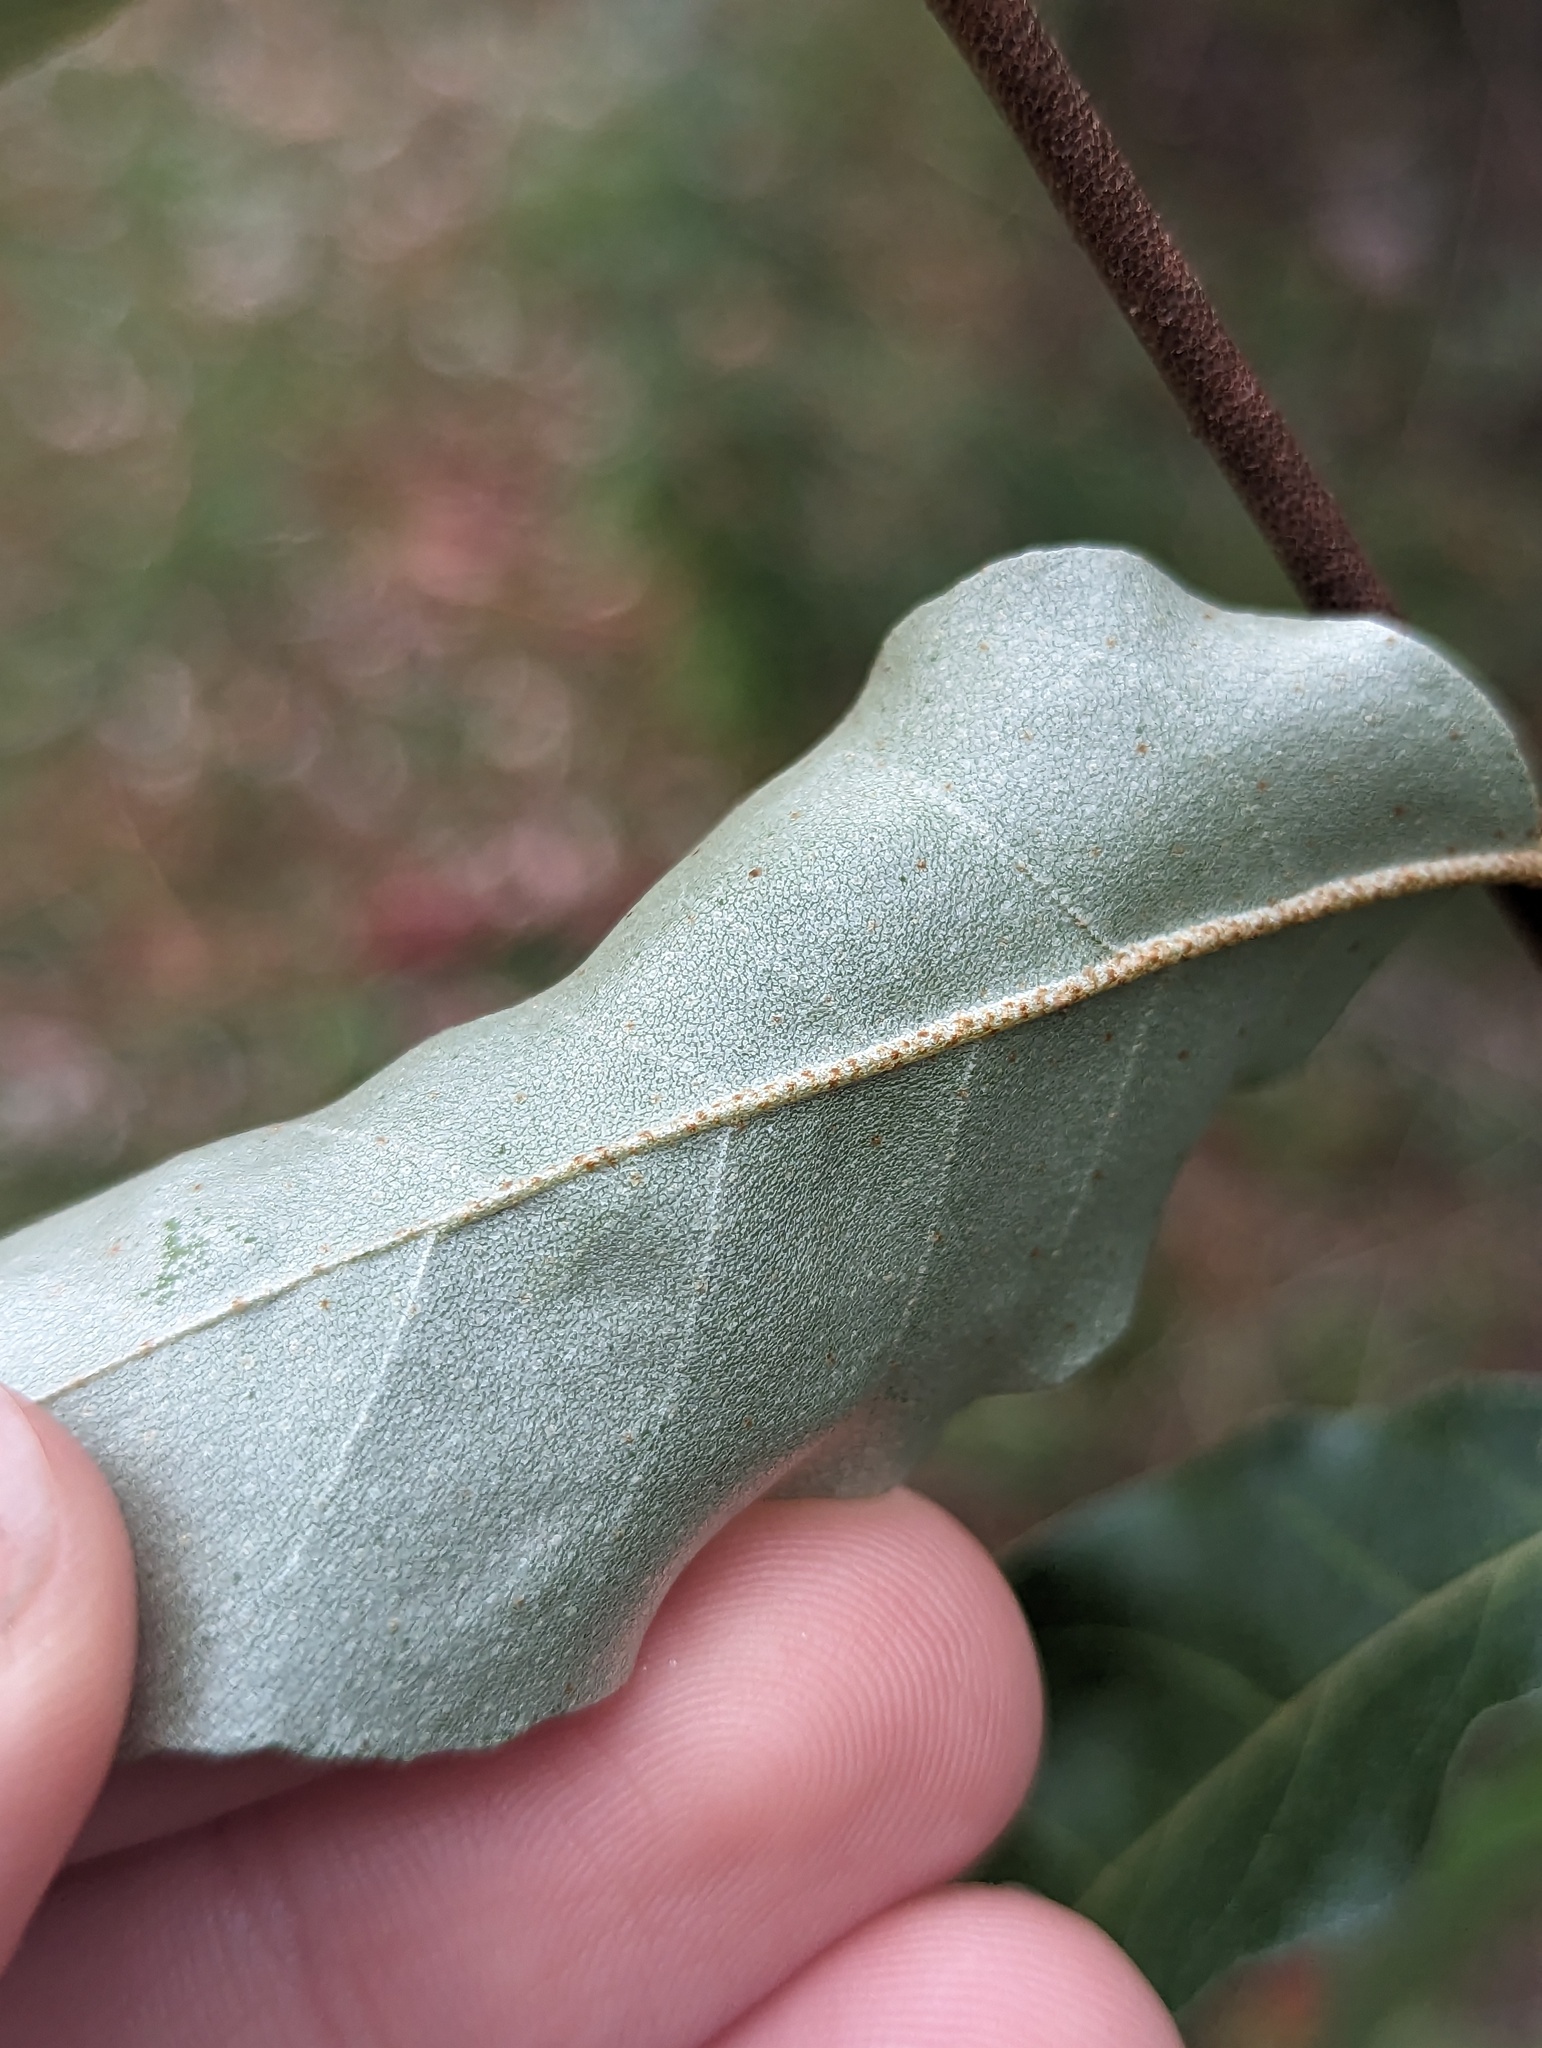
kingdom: Plantae
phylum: Tracheophyta
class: Magnoliopsida
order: Rosales
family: Elaeagnaceae
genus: Elaeagnus
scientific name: Elaeagnus umbellata
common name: Autumn olive
